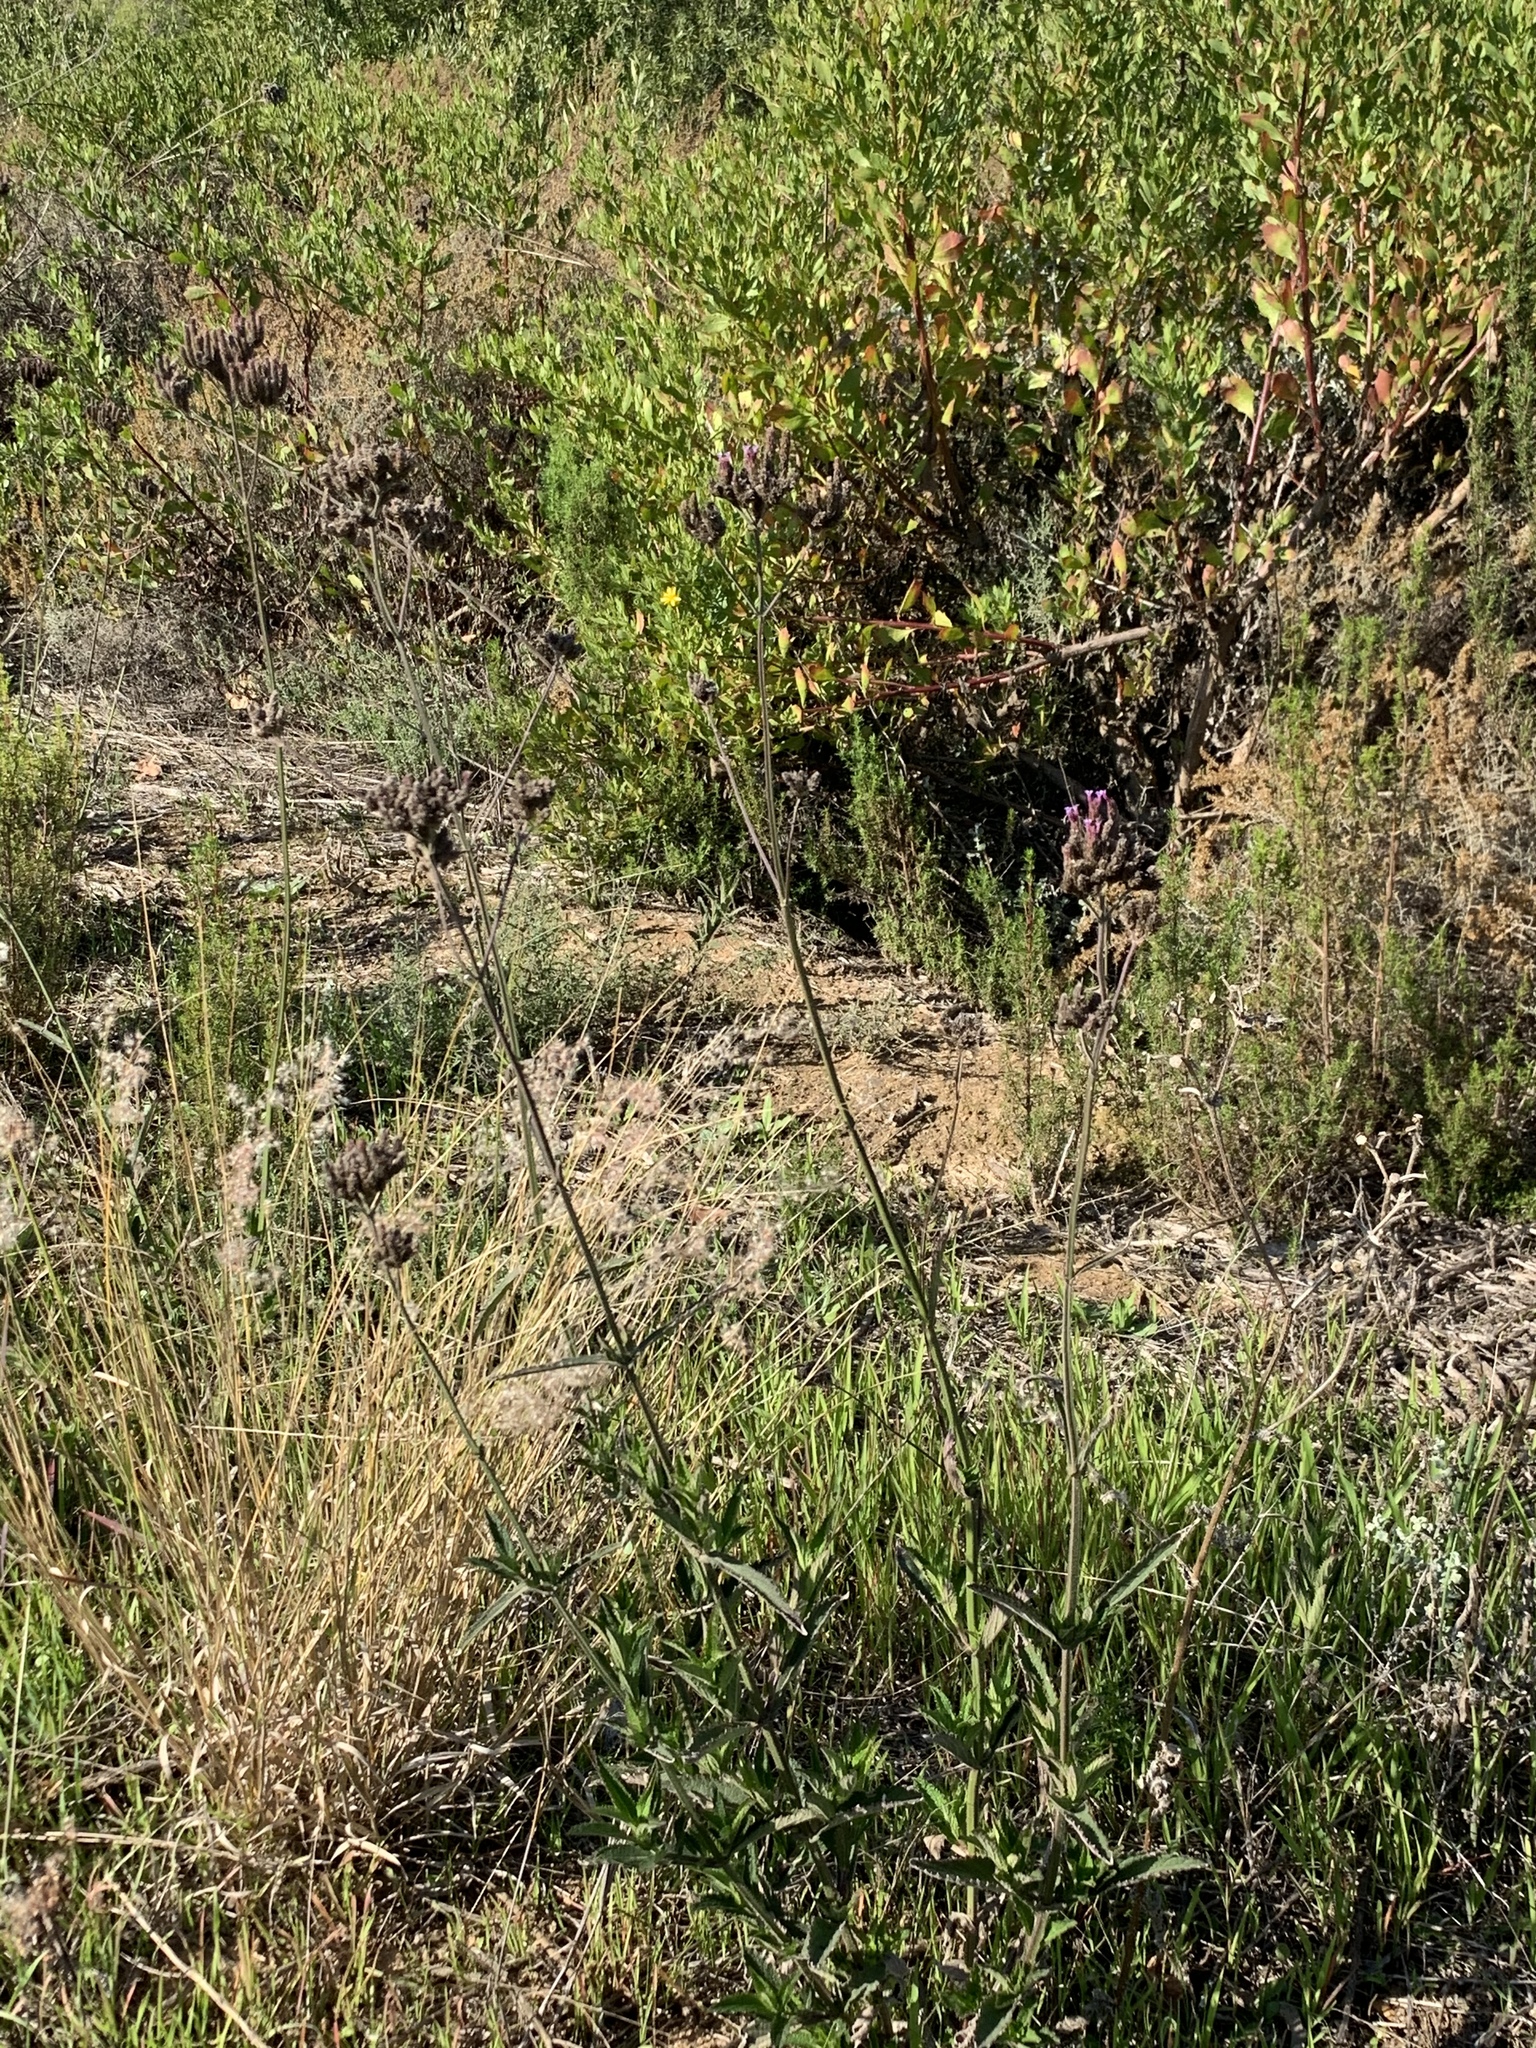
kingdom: Plantae
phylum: Tracheophyta
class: Magnoliopsida
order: Lamiales
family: Verbenaceae
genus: Verbena
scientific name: Verbena bonariensis
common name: Purpletop vervain
